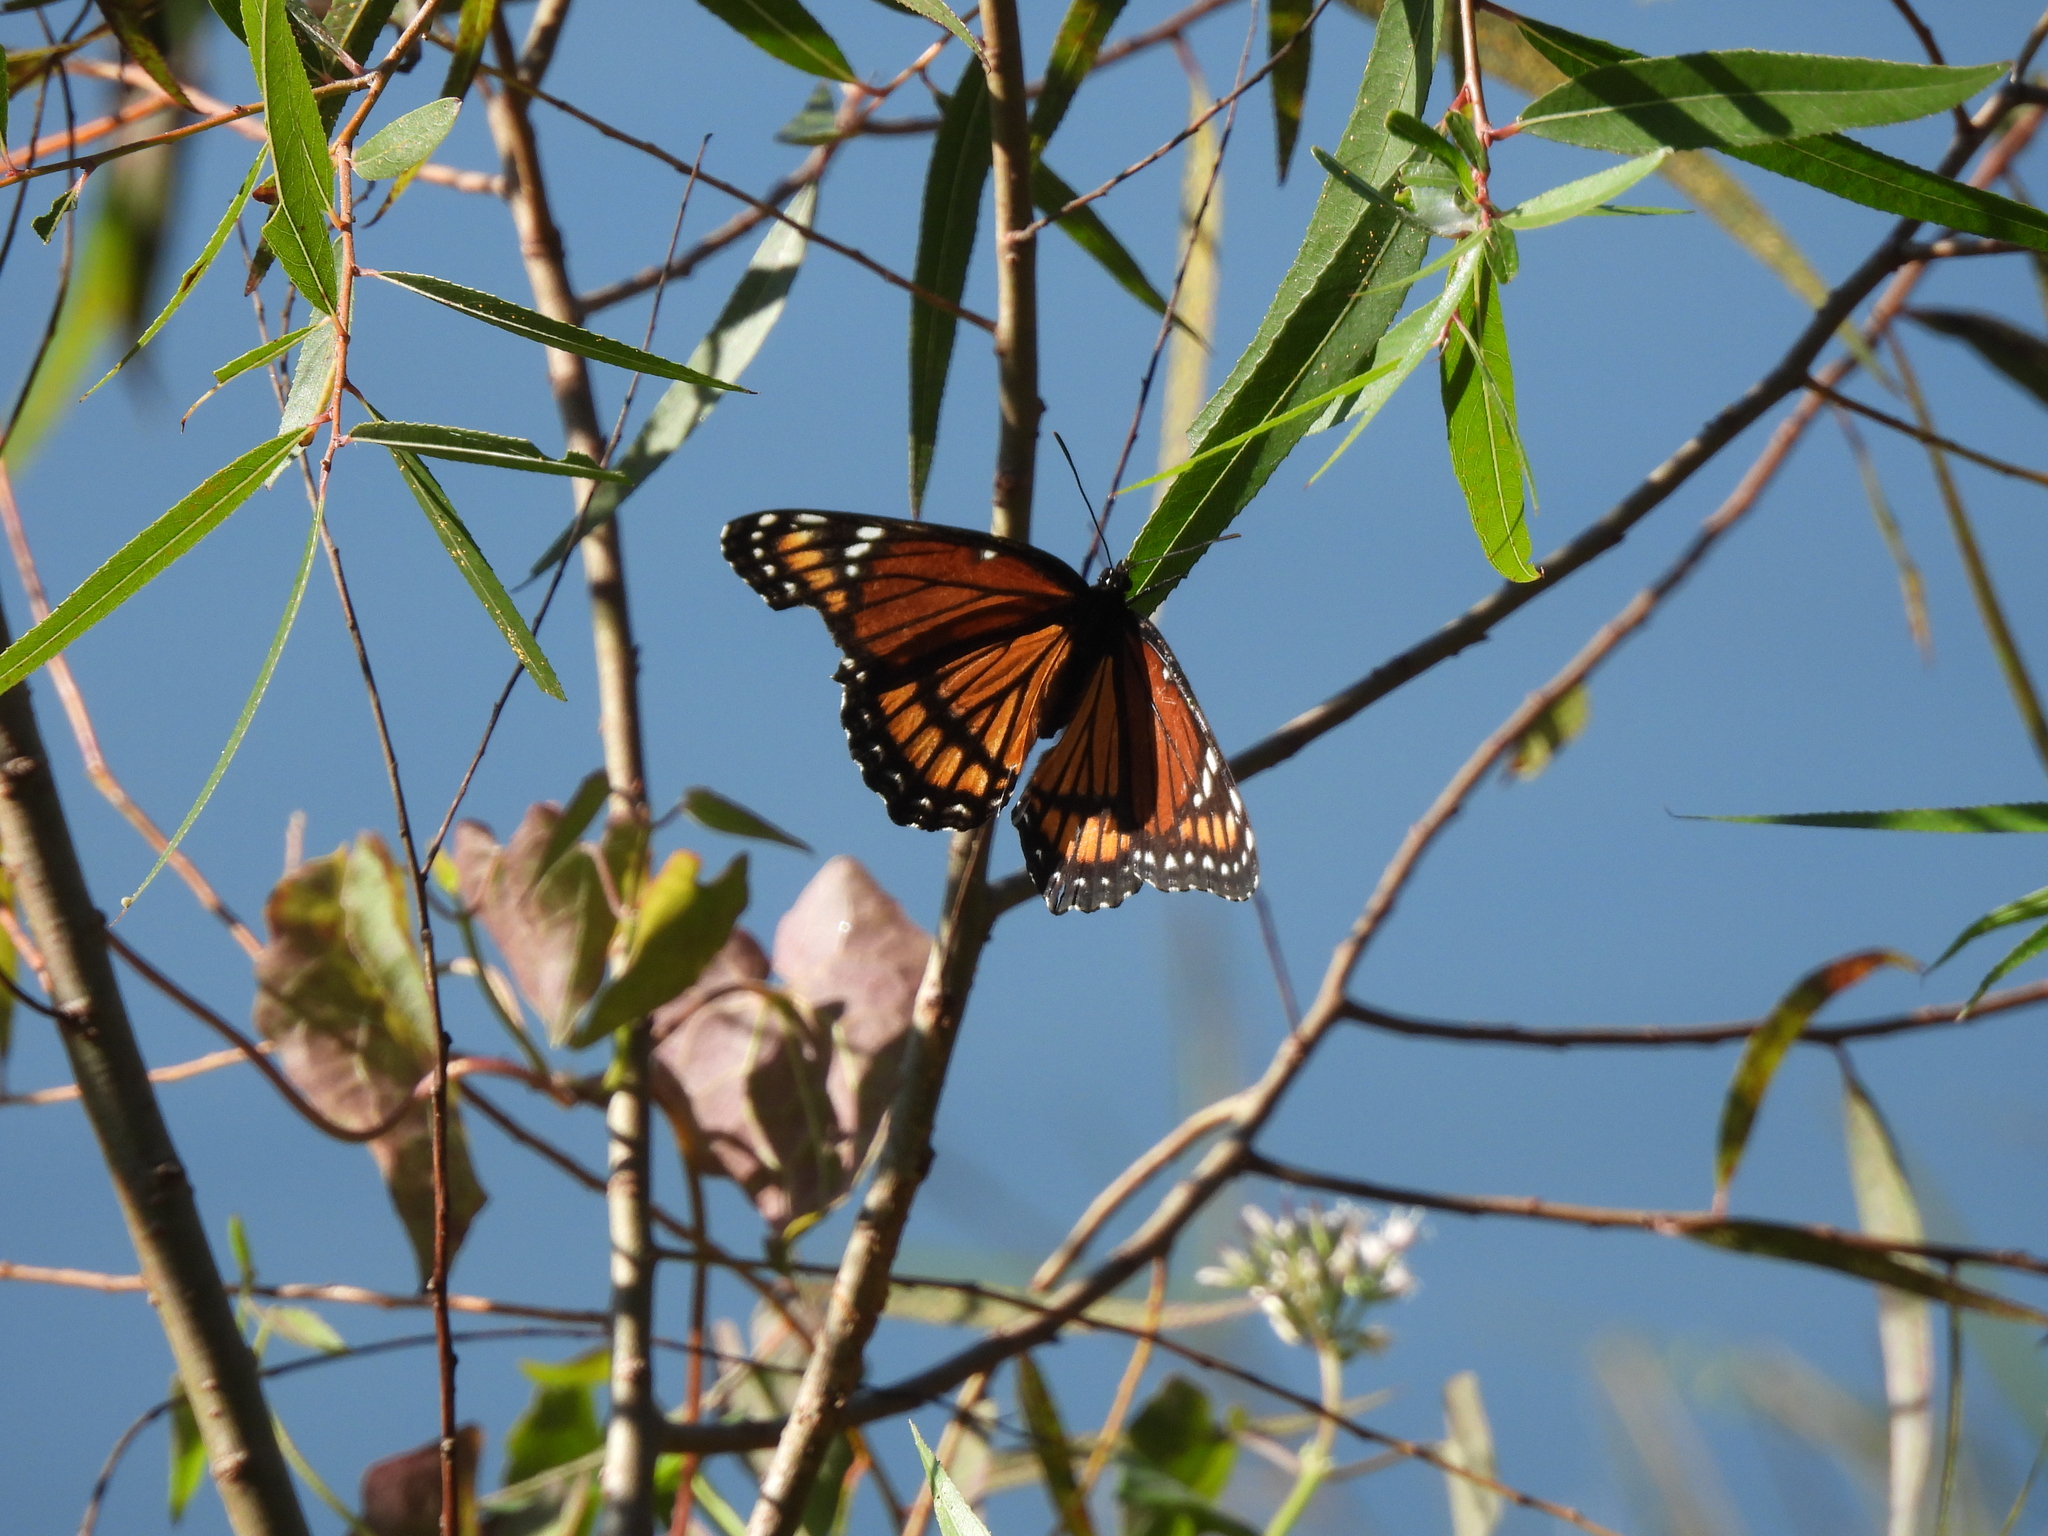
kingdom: Animalia
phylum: Arthropoda
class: Insecta
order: Lepidoptera
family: Nymphalidae
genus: Limenitis
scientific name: Limenitis archippus
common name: Viceroy
